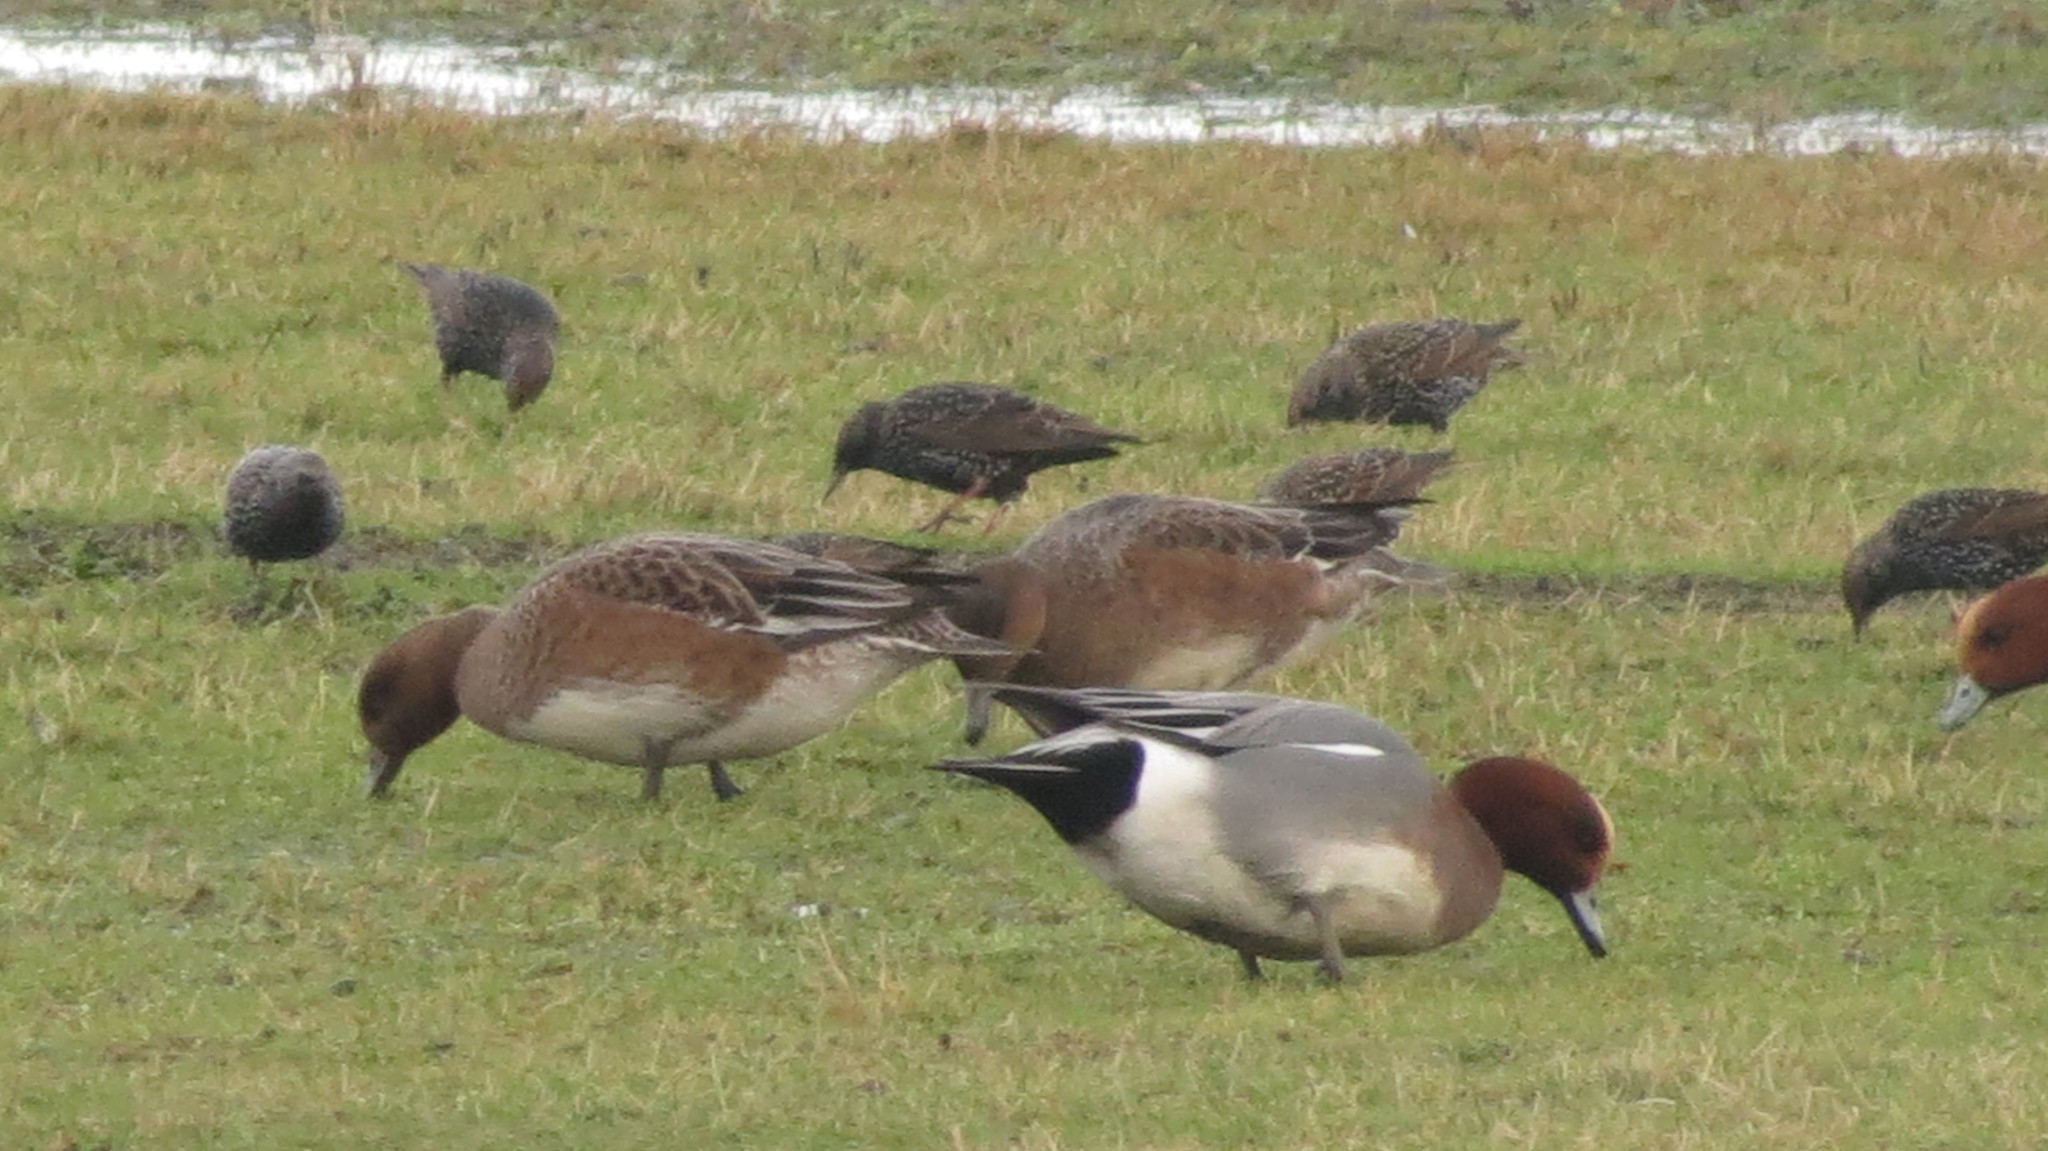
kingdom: Animalia
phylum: Chordata
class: Aves
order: Passeriformes
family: Sturnidae
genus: Sturnus
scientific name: Sturnus vulgaris
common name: Common starling
